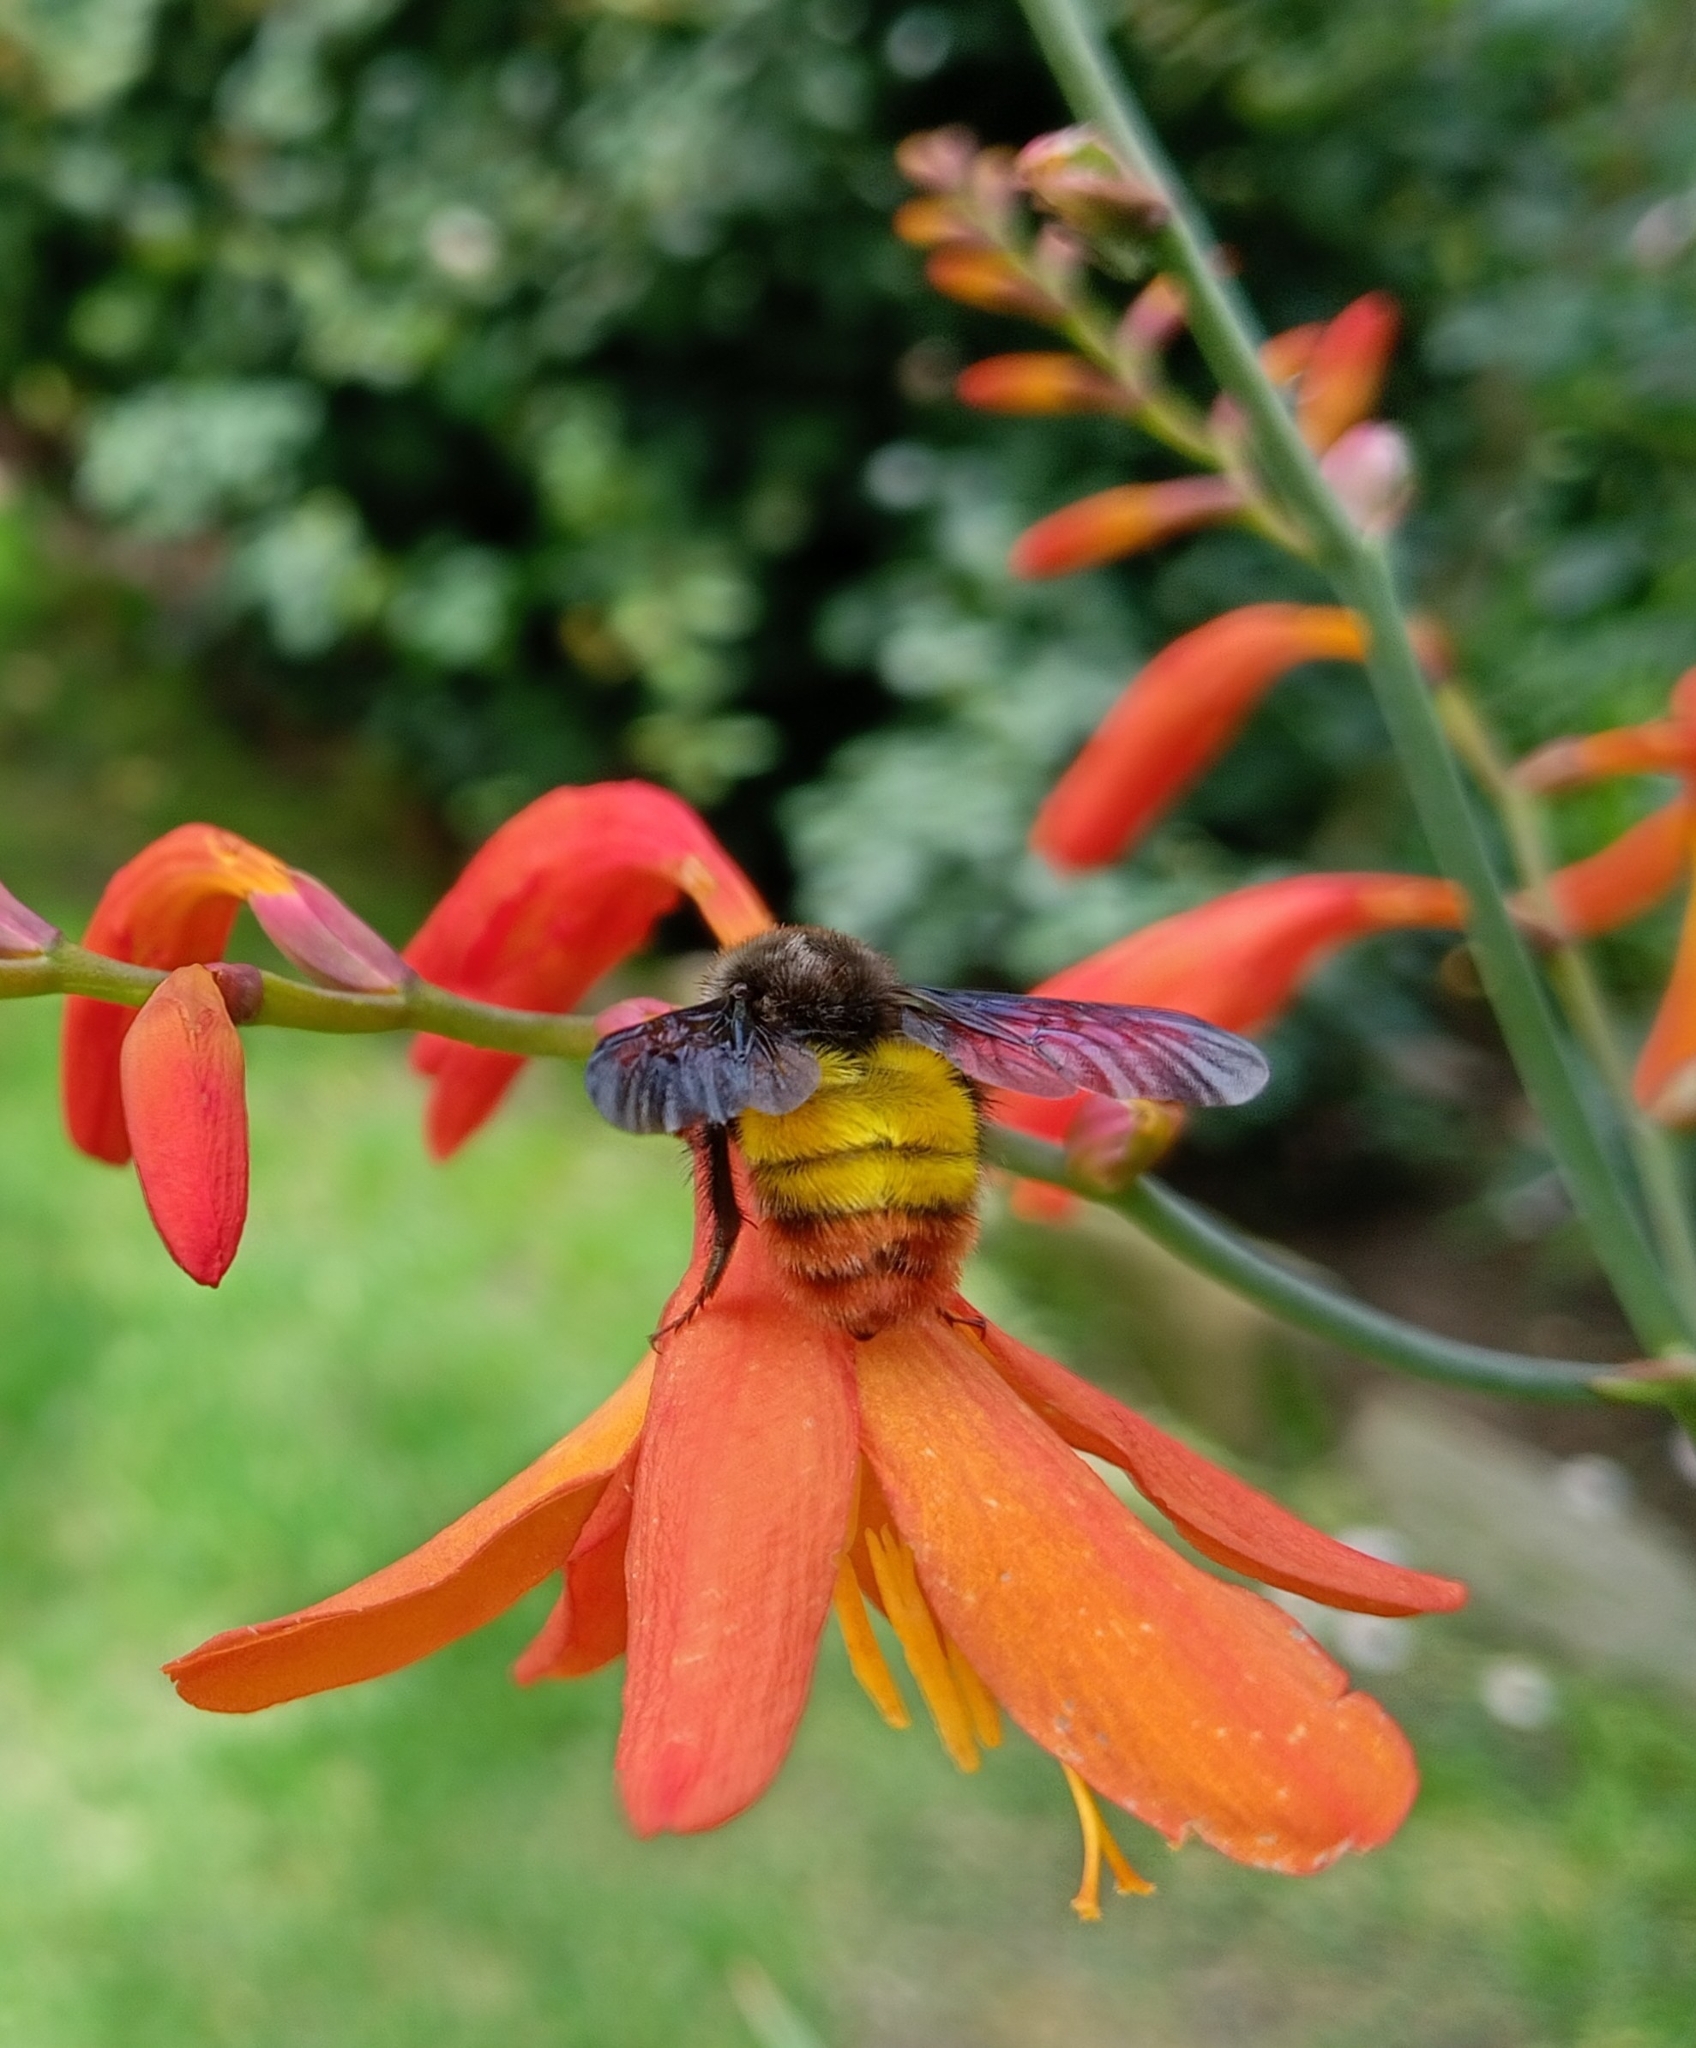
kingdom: Animalia
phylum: Arthropoda
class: Insecta
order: Hymenoptera
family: Apidae
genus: Bombus
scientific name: Bombus breviceps
